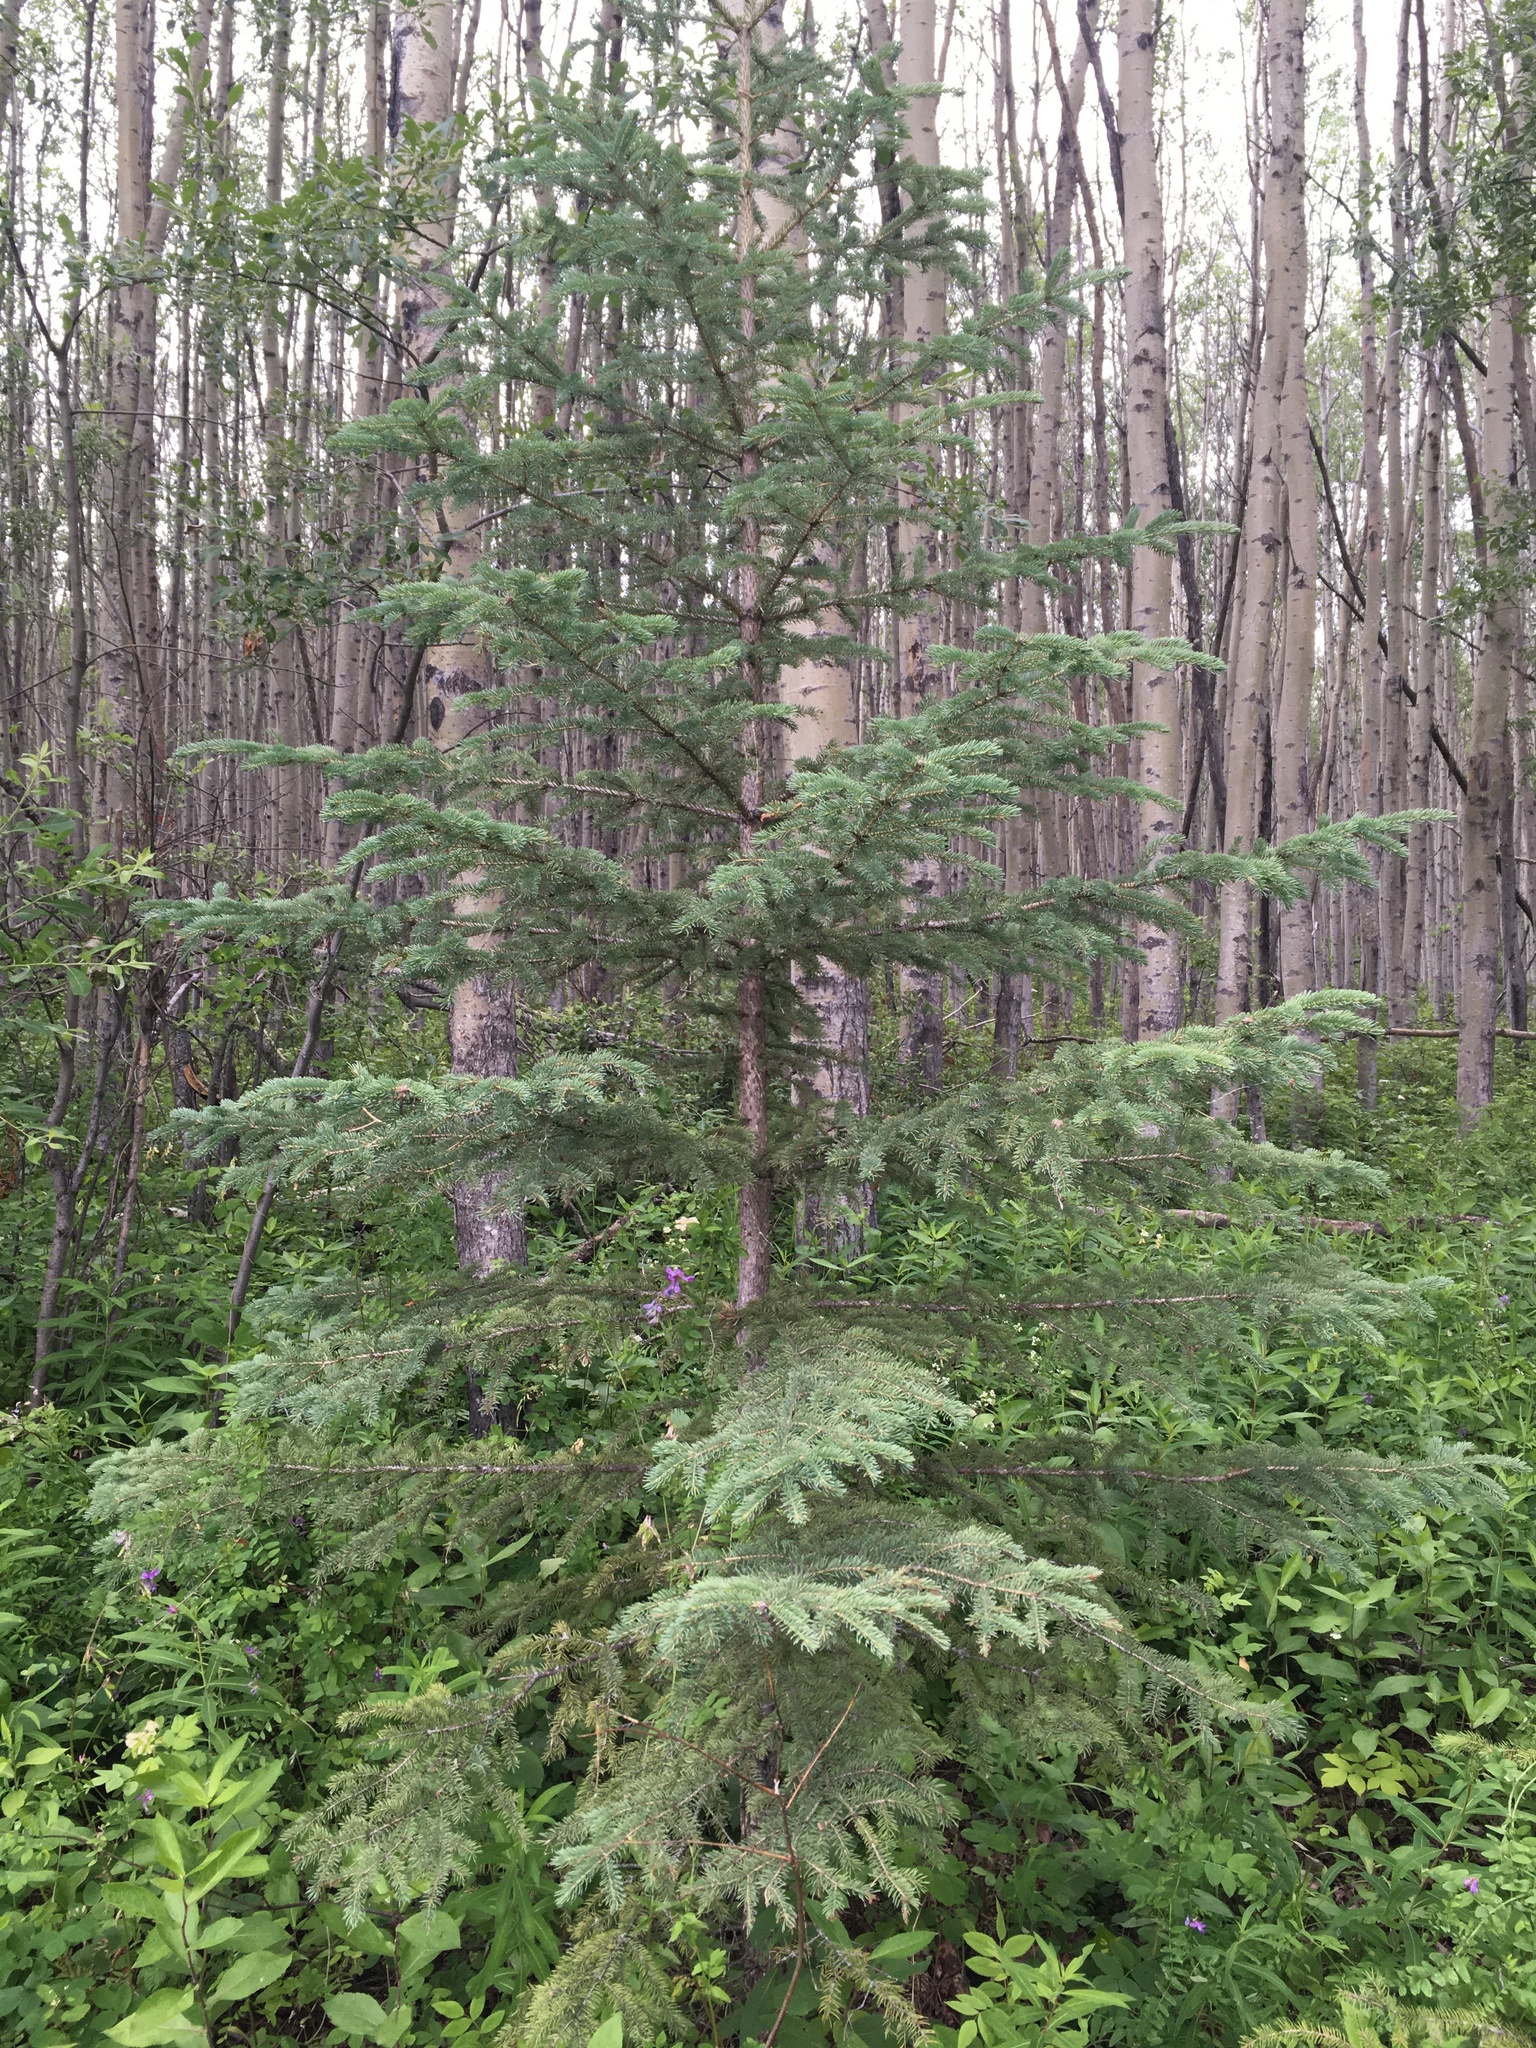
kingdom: Plantae
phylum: Tracheophyta
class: Pinopsida
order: Pinales
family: Pinaceae
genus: Picea
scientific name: Picea mariana
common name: Black spruce
